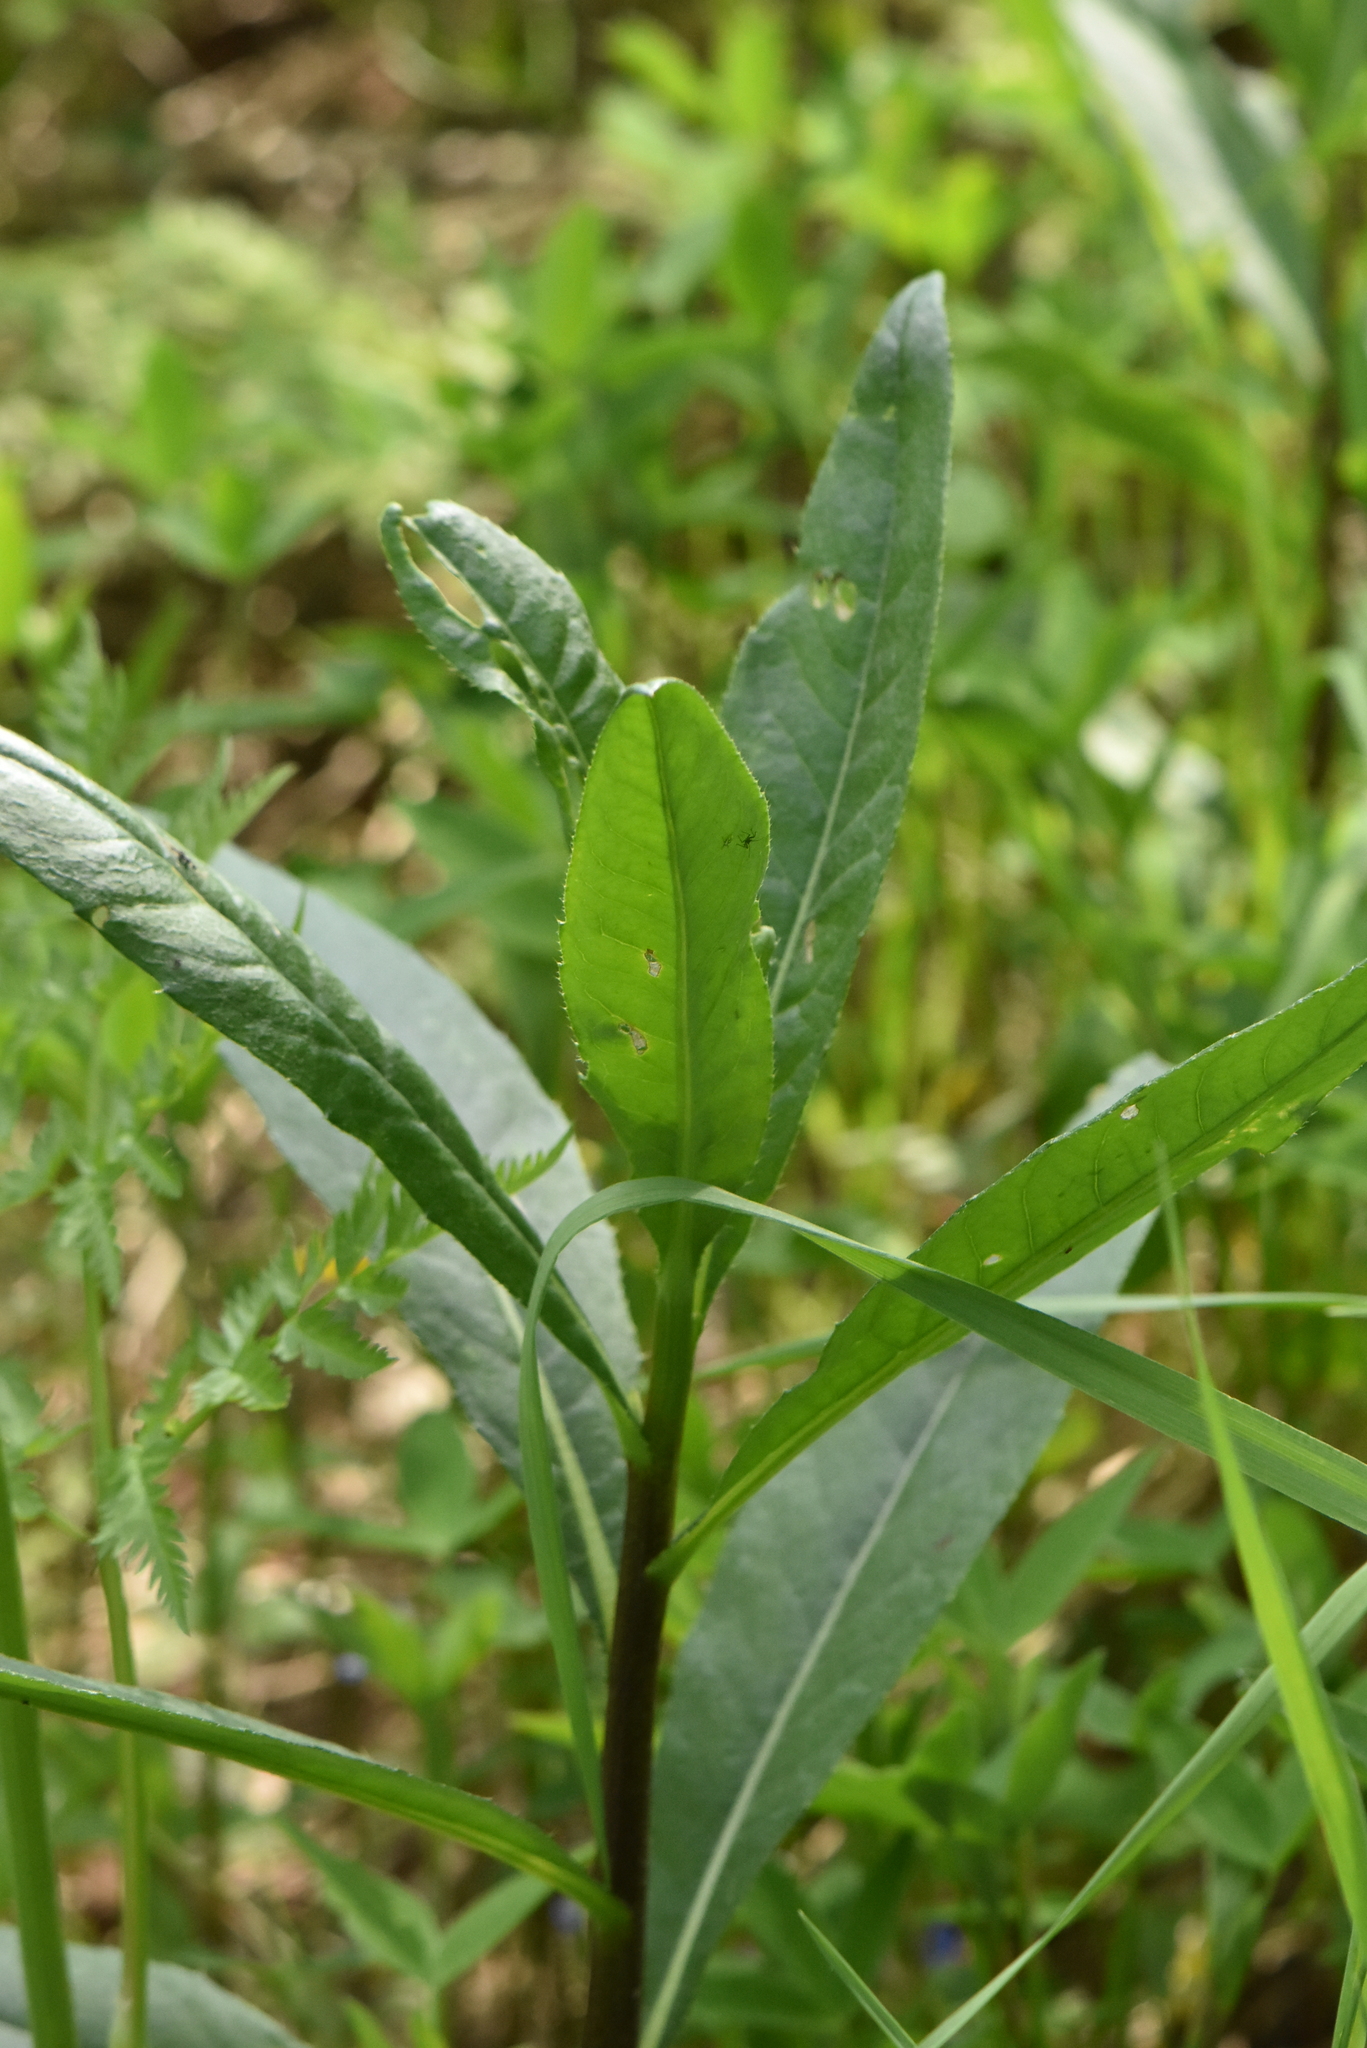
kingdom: Plantae
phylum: Tracheophyta
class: Magnoliopsida
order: Asterales
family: Asteraceae
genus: Cirsium
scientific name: Cirsium arvense
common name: Creeping thistle
